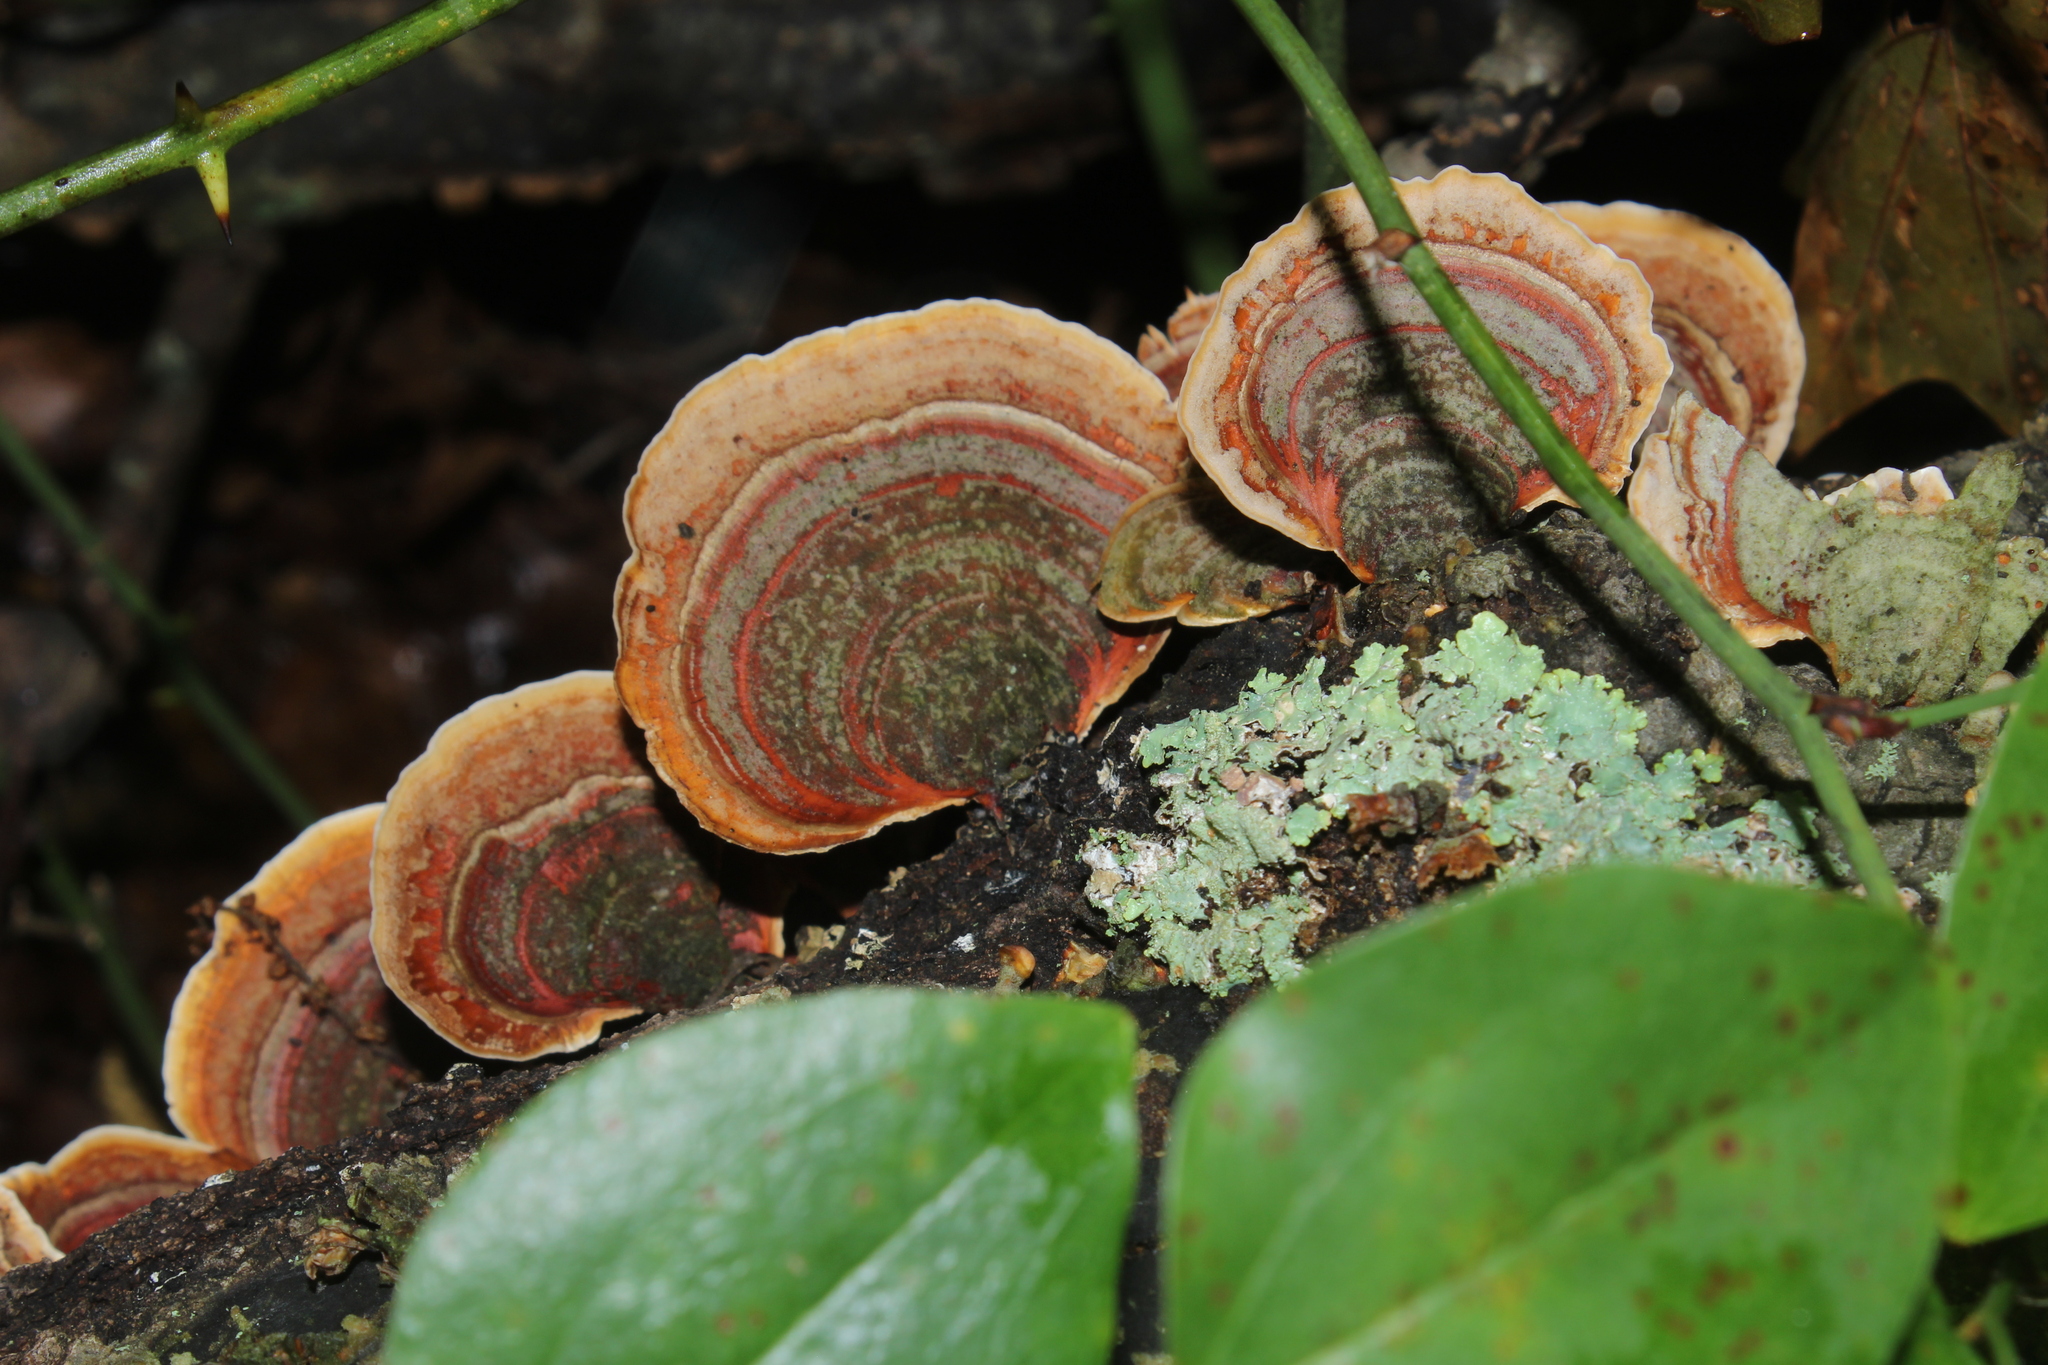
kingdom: Fungi
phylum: Basidiomycota
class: Agaricomycetes
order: Russulales
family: Stereaceae
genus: Stereum
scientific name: Stereum lobatum
